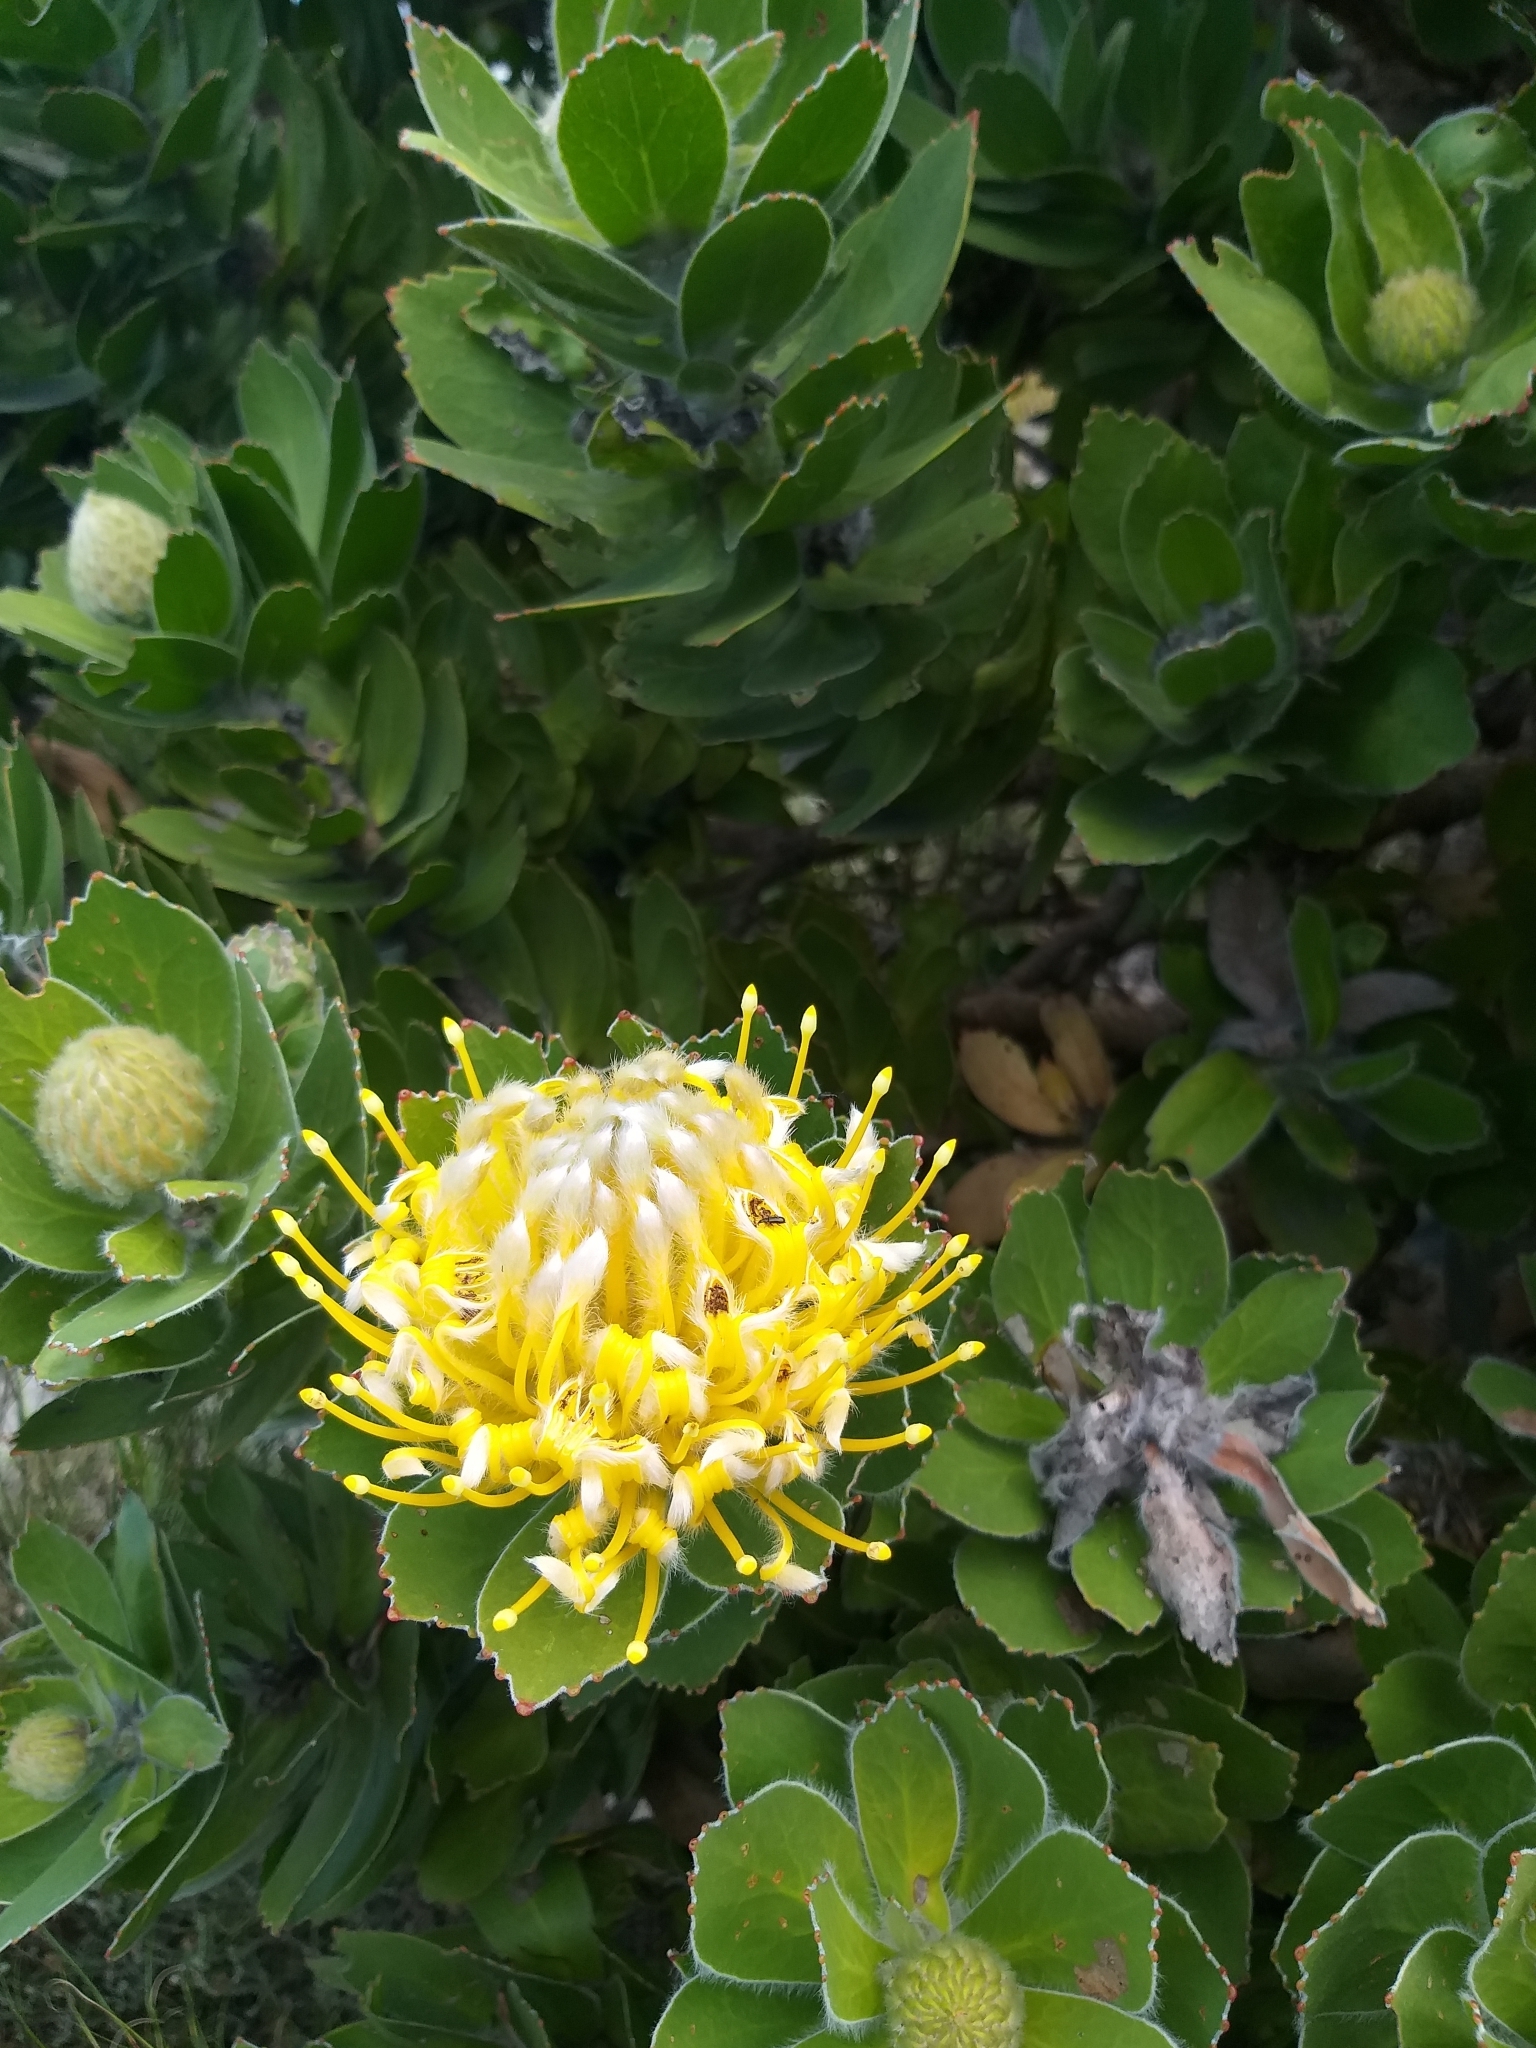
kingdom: Plantae
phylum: Tracheophyta
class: Magnoliopsida
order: Proteales
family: Proteaceae
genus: Leucospermum
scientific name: Leucospermum conocarpodendron
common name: Tree pincushion
